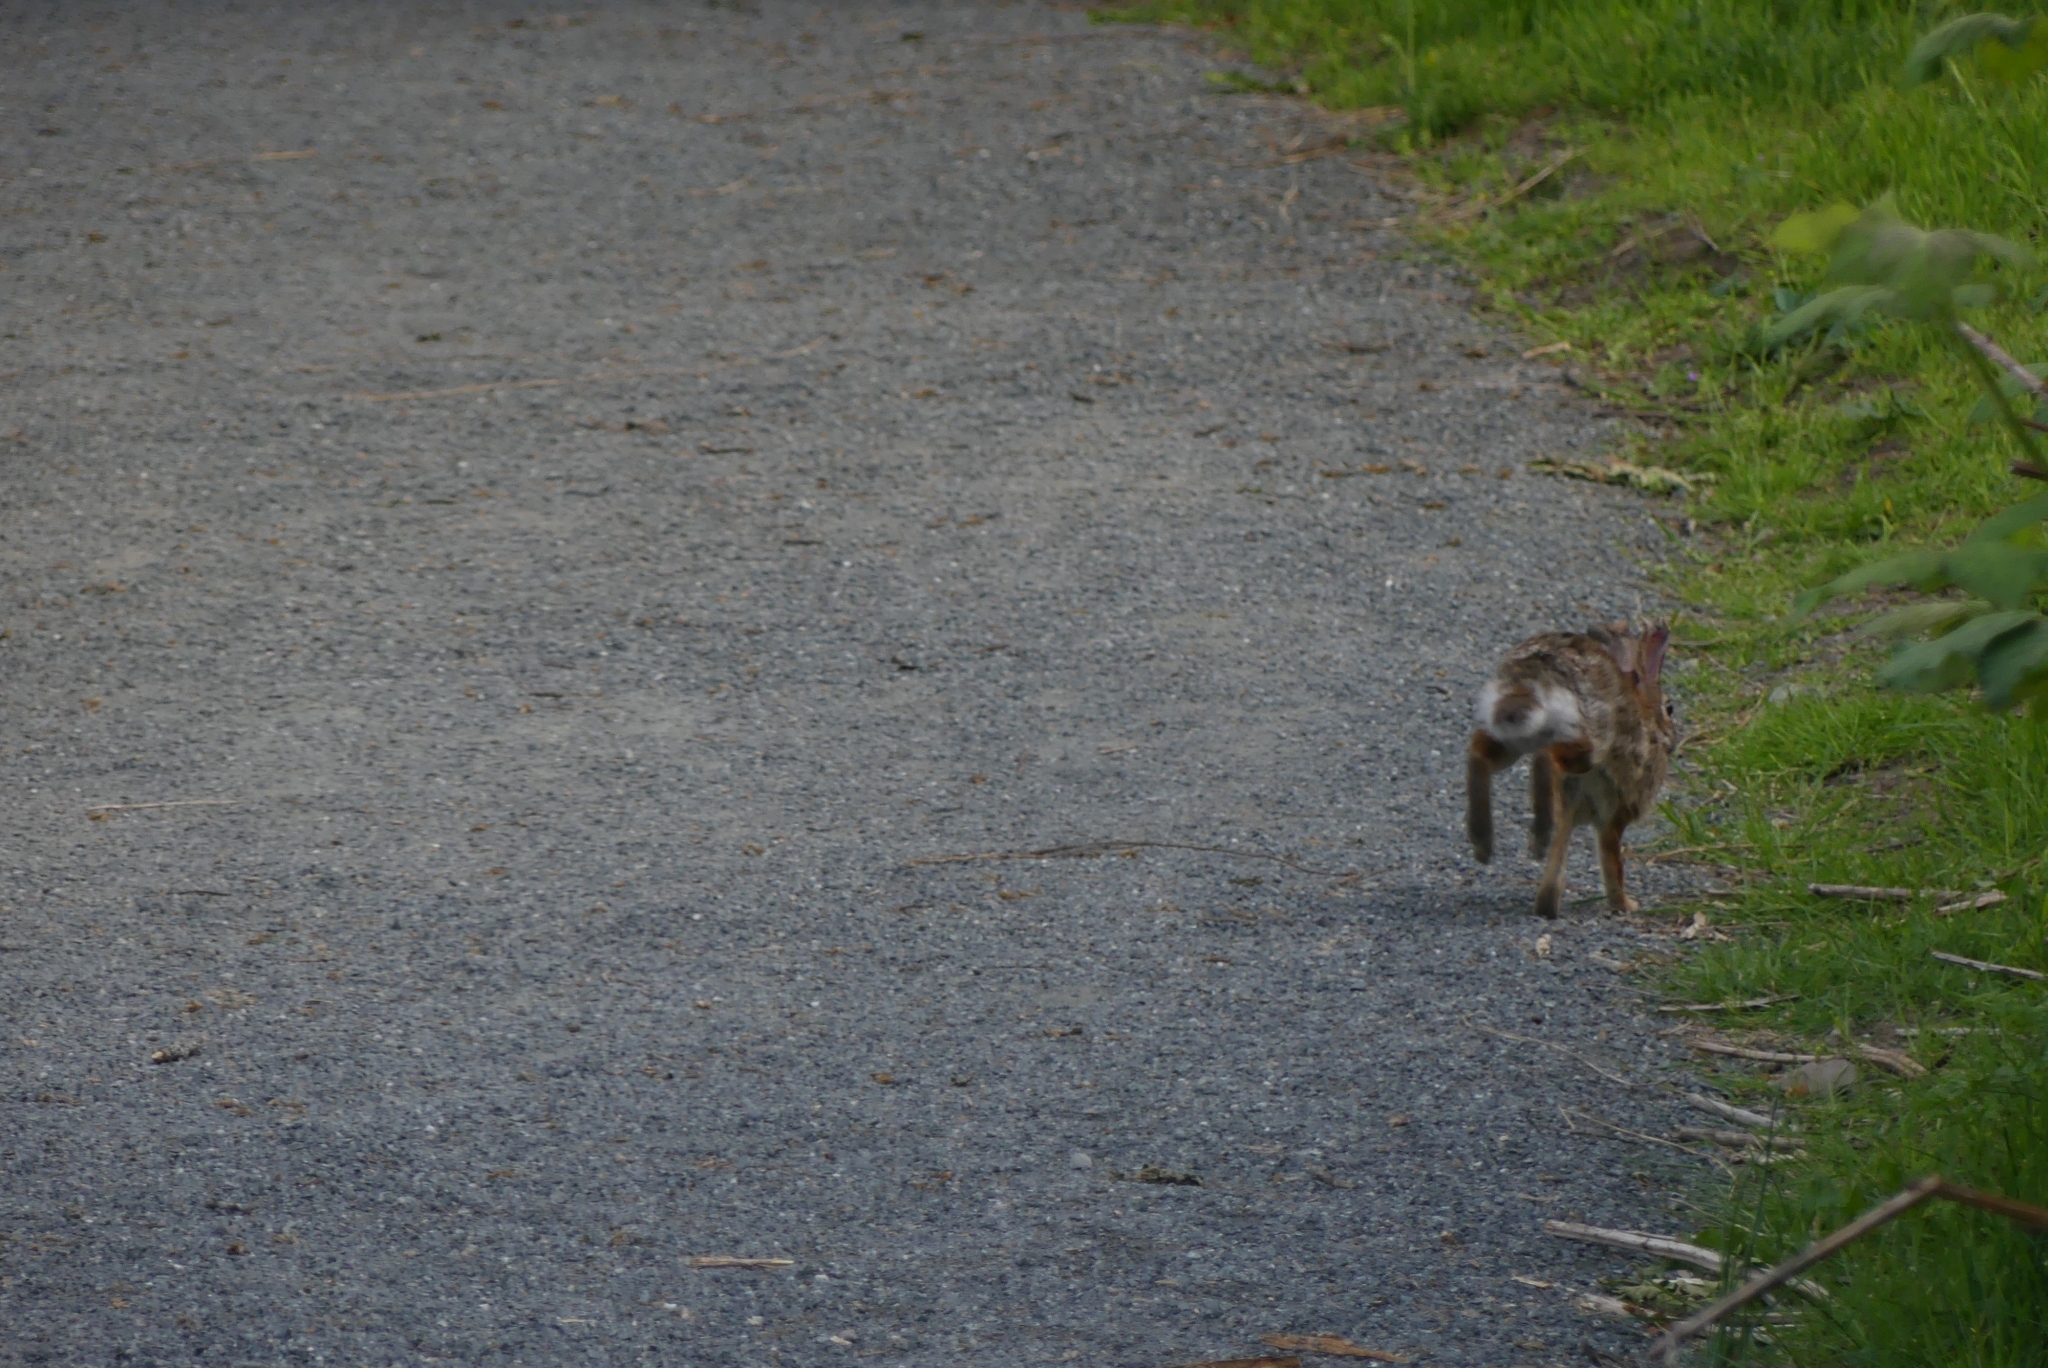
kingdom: Animalia
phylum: Chordata
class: Mammalia
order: Lagomorpha
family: Leporidae
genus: Sylvilagus
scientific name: Sylvilagus floridanus
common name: Eastern cottontail
